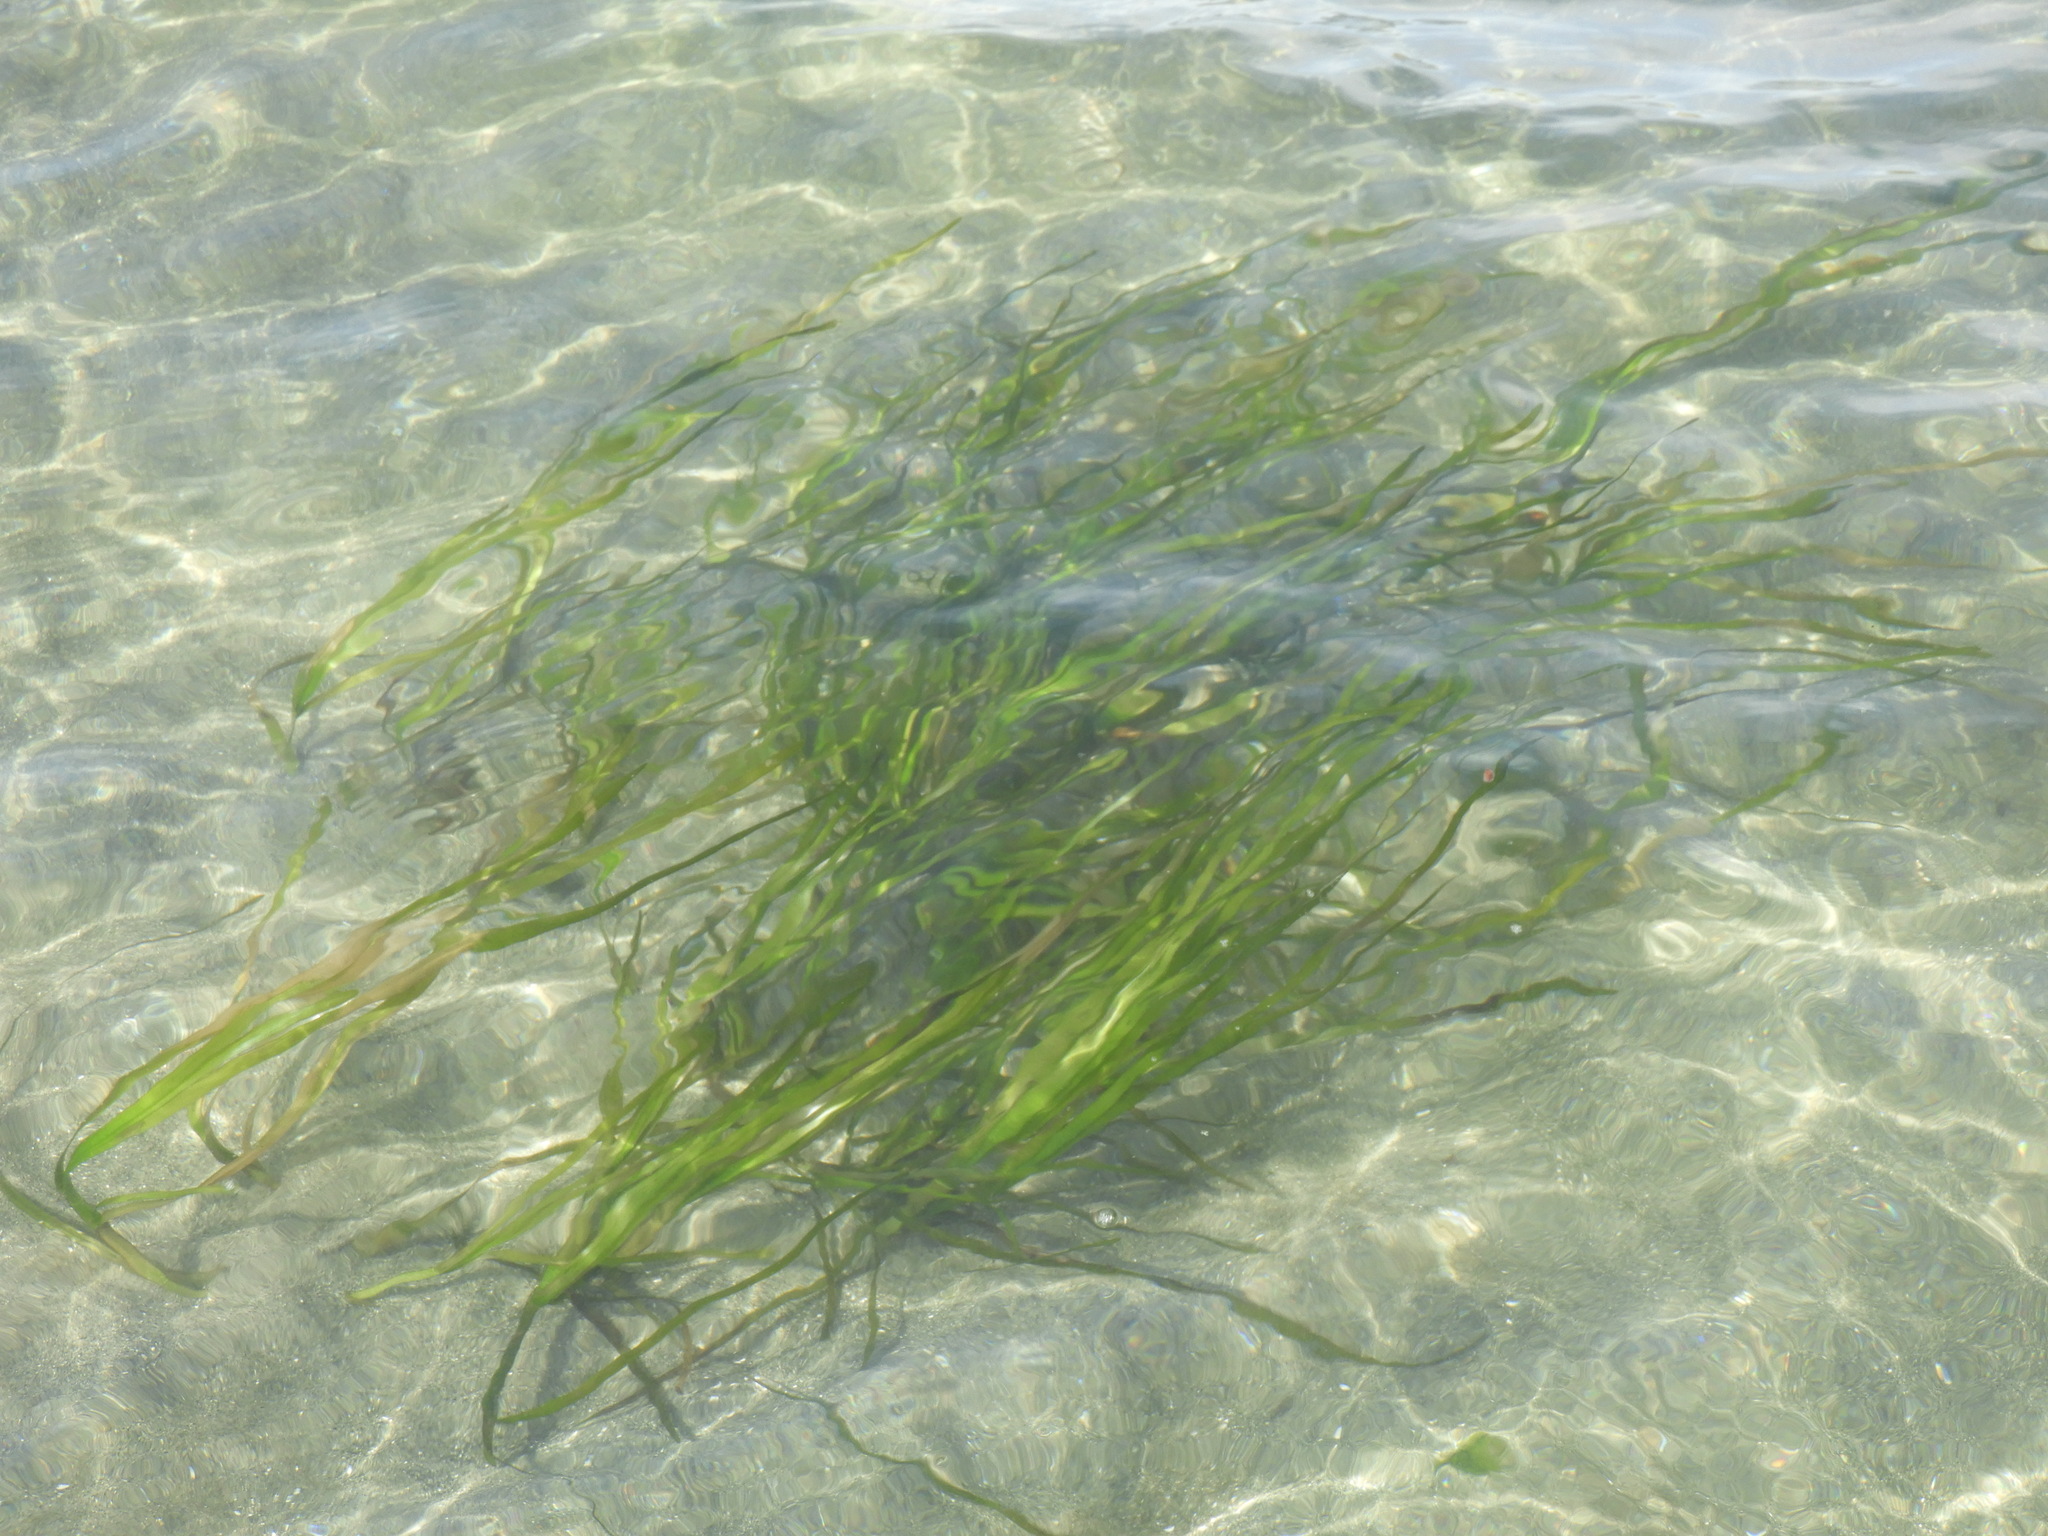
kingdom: Plantae
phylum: Tracheophyta
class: Liliopsida
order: Alismatales
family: Zosteraceae
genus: Zostera
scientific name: Zostera marina
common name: Eelgrass
